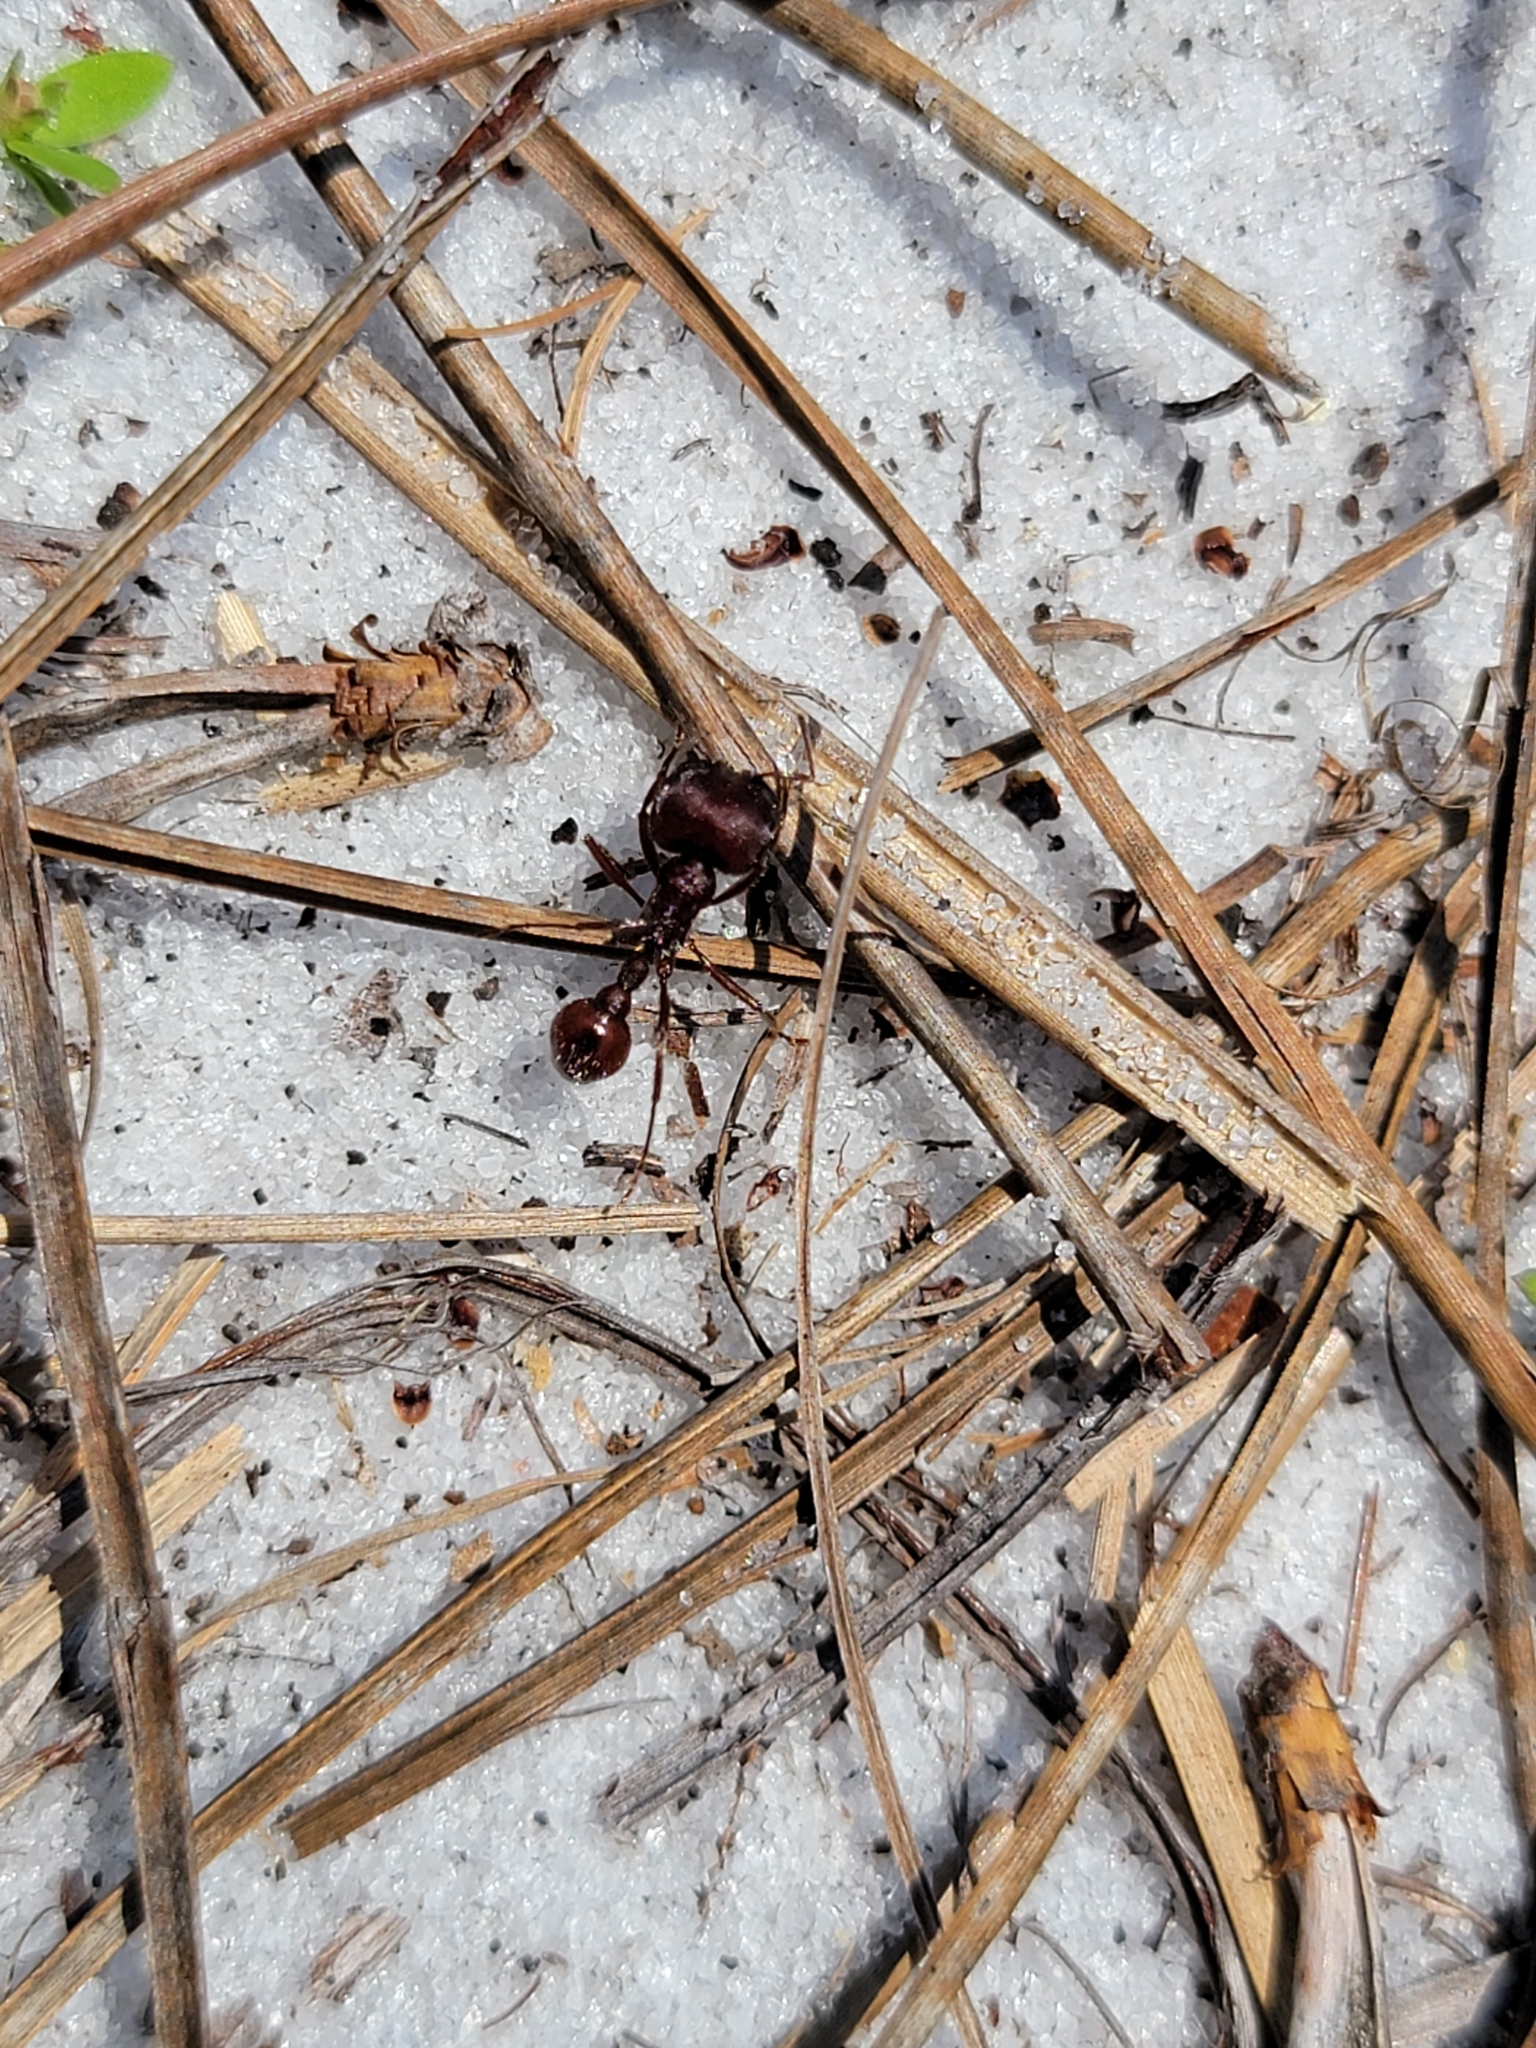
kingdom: Animalia
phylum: Arthropoda
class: Insecta
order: Hymenoptera
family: Formicidae
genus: Pogonomyrmex
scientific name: Pogonomyrmex badius
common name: Florida harvester ant
